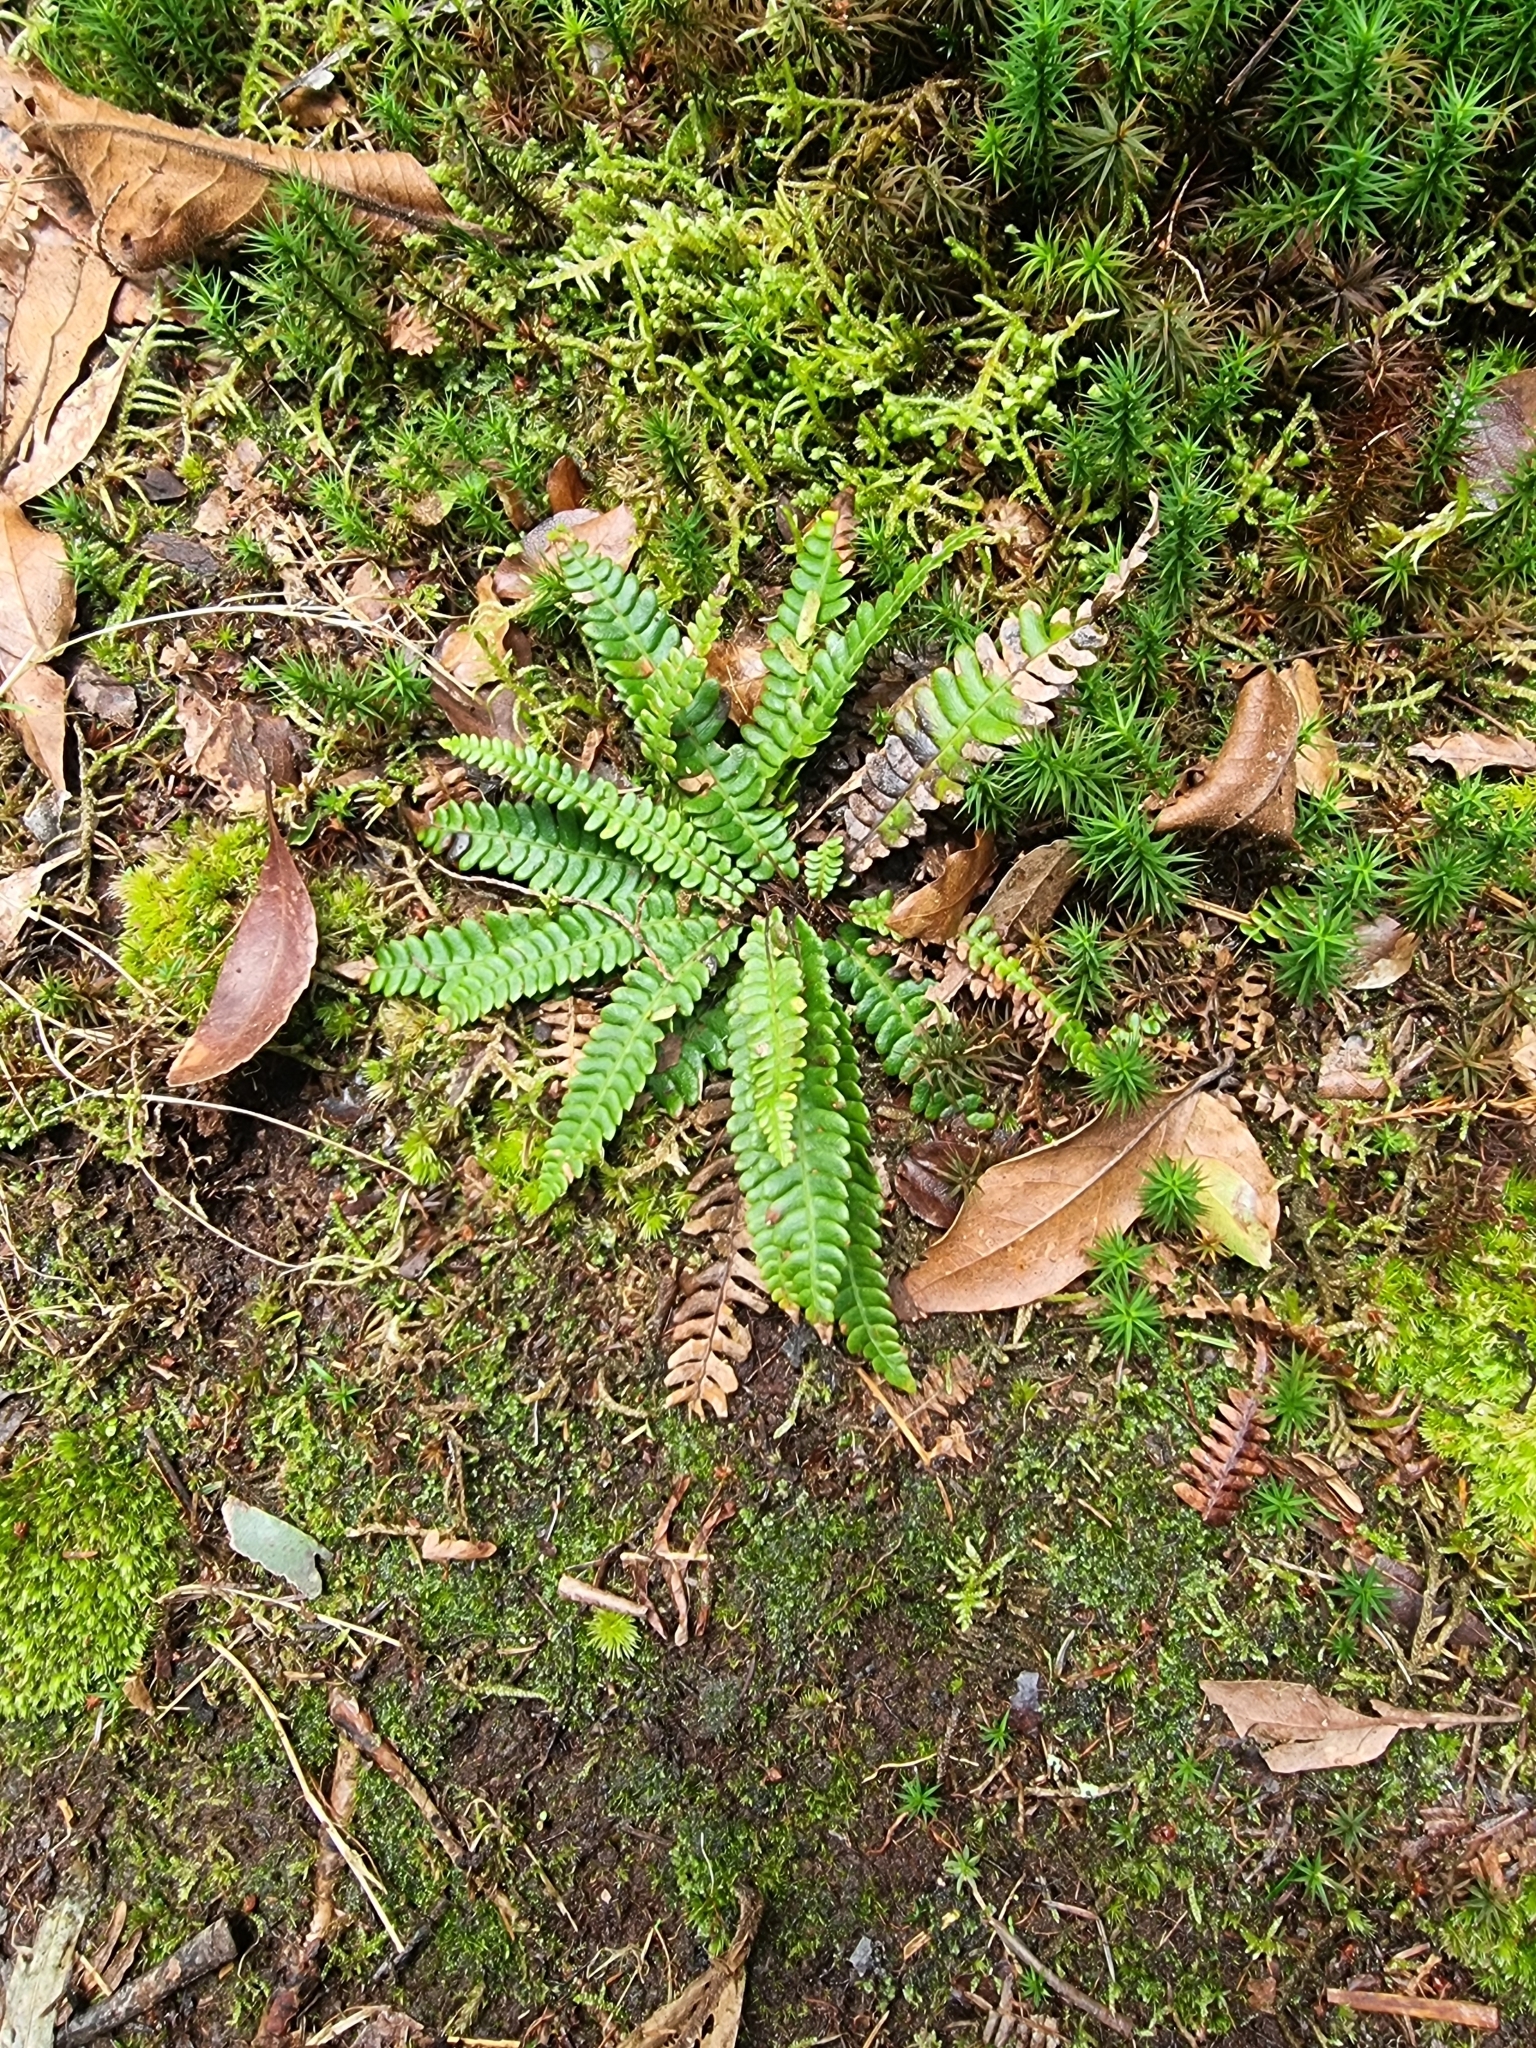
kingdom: Plantae
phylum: Tracheophyta
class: Polypodiopsida
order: Polypodiales
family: Blechnaceae
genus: Struthiopteris
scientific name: Struthiopteris spicant
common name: Deer fern
